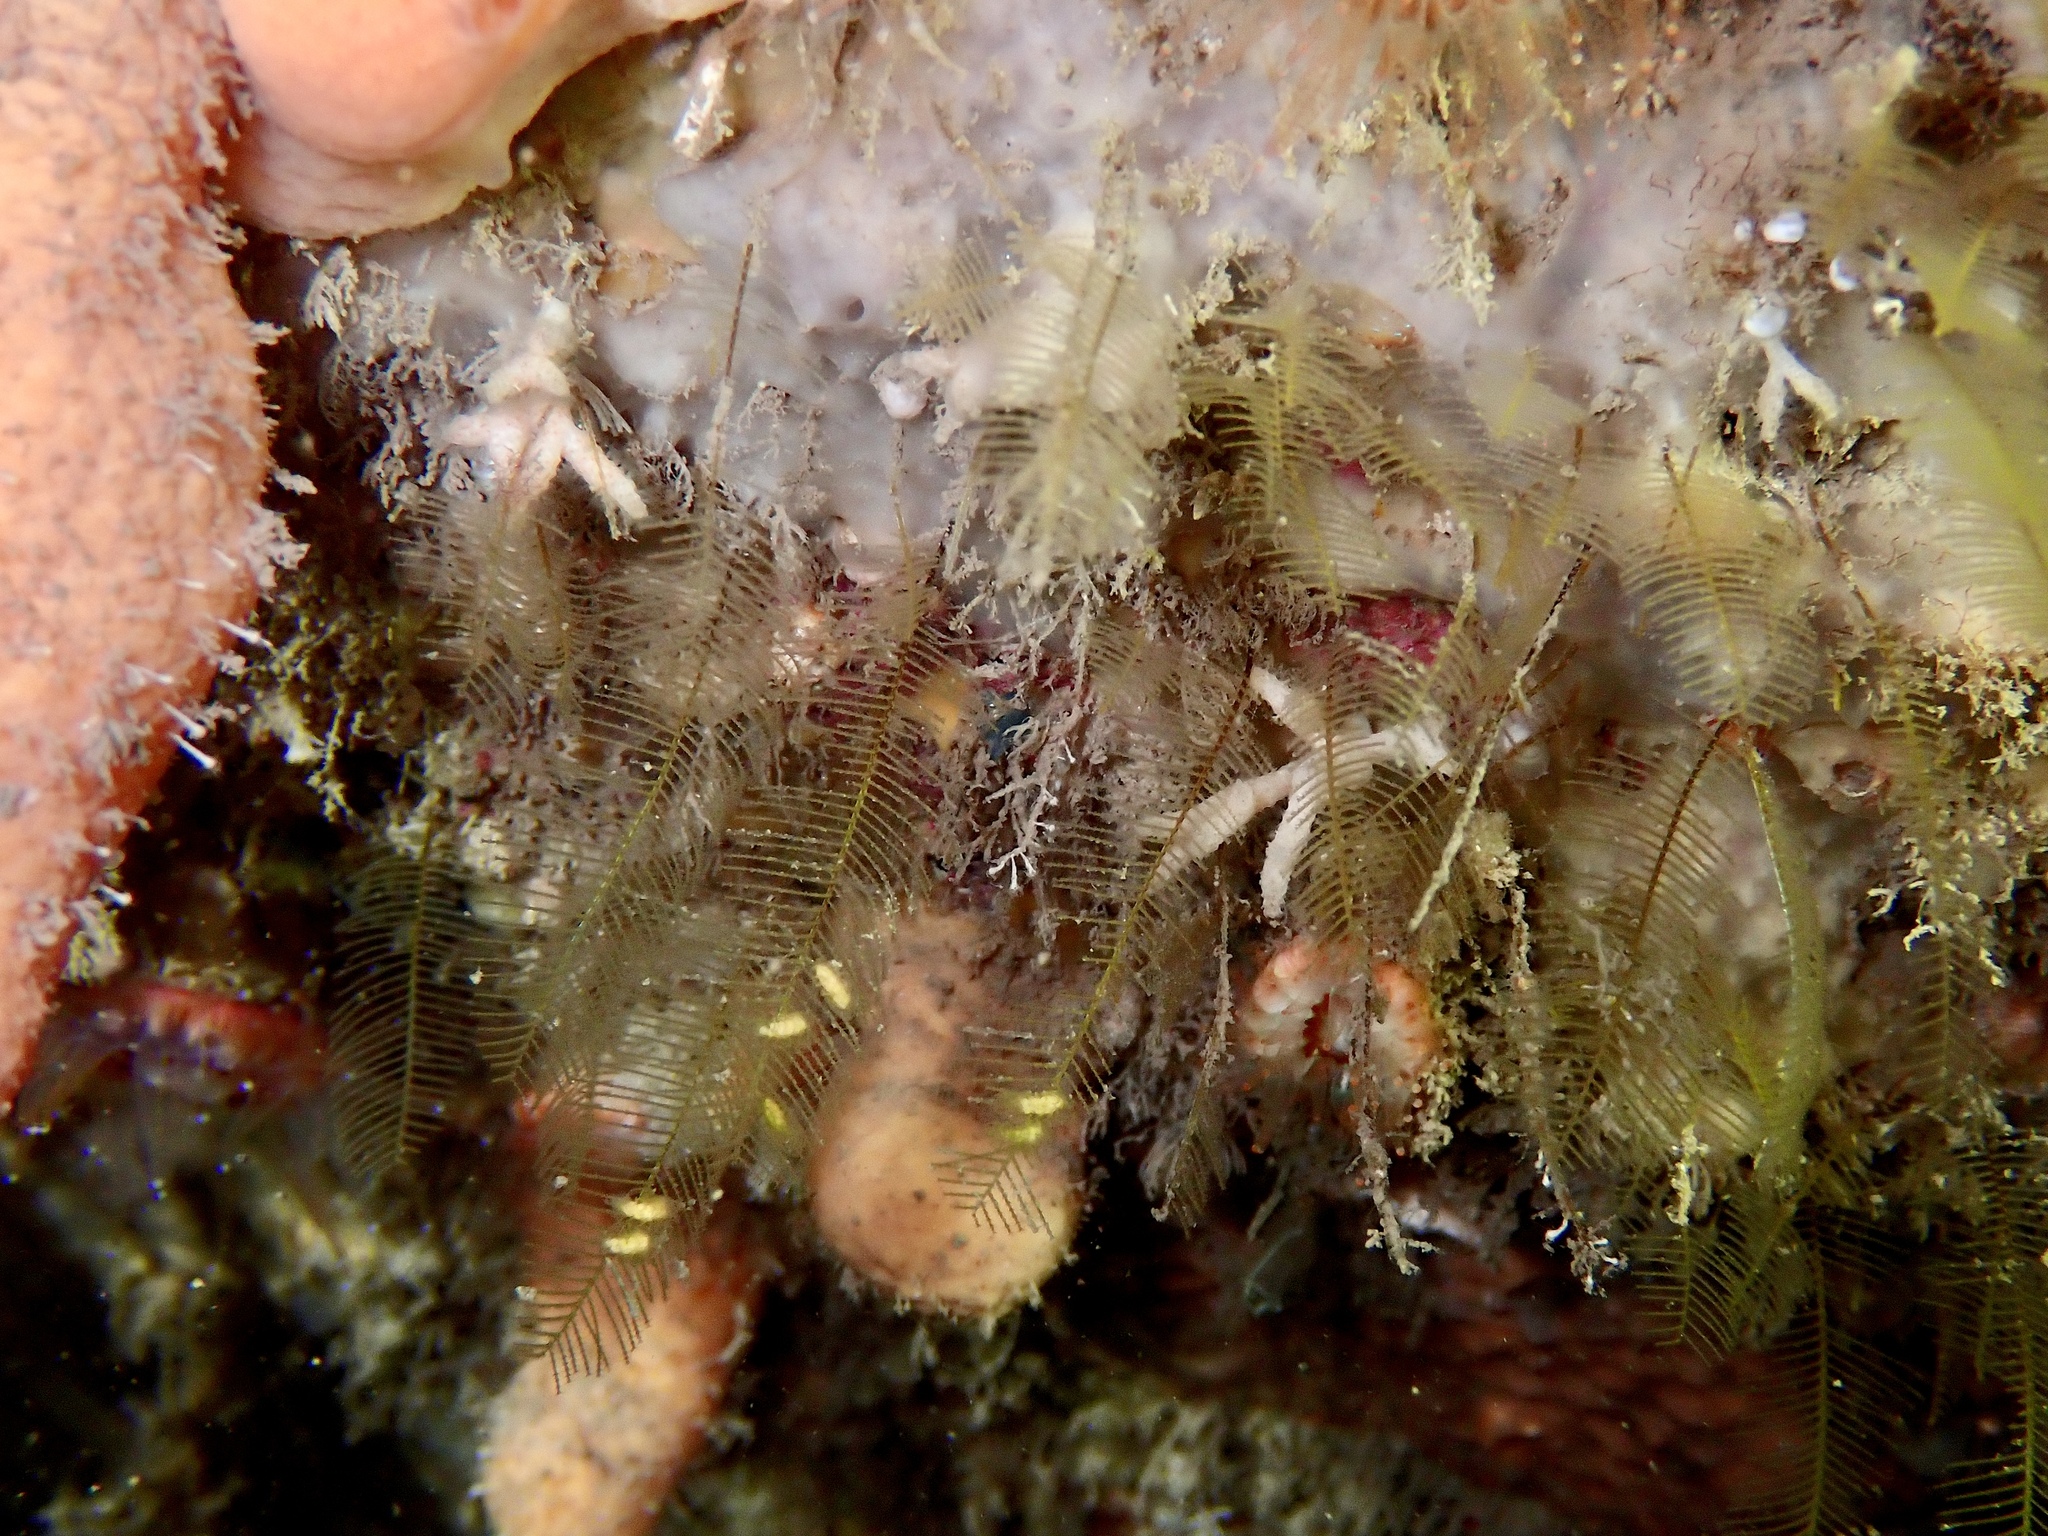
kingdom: Animalia
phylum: Cnidaria
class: Hydrozoa
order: Leptothecata
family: Aglaopheniidae
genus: Aglaophenia
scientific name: Aglaophenia tubulifera
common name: Plume hydroid
